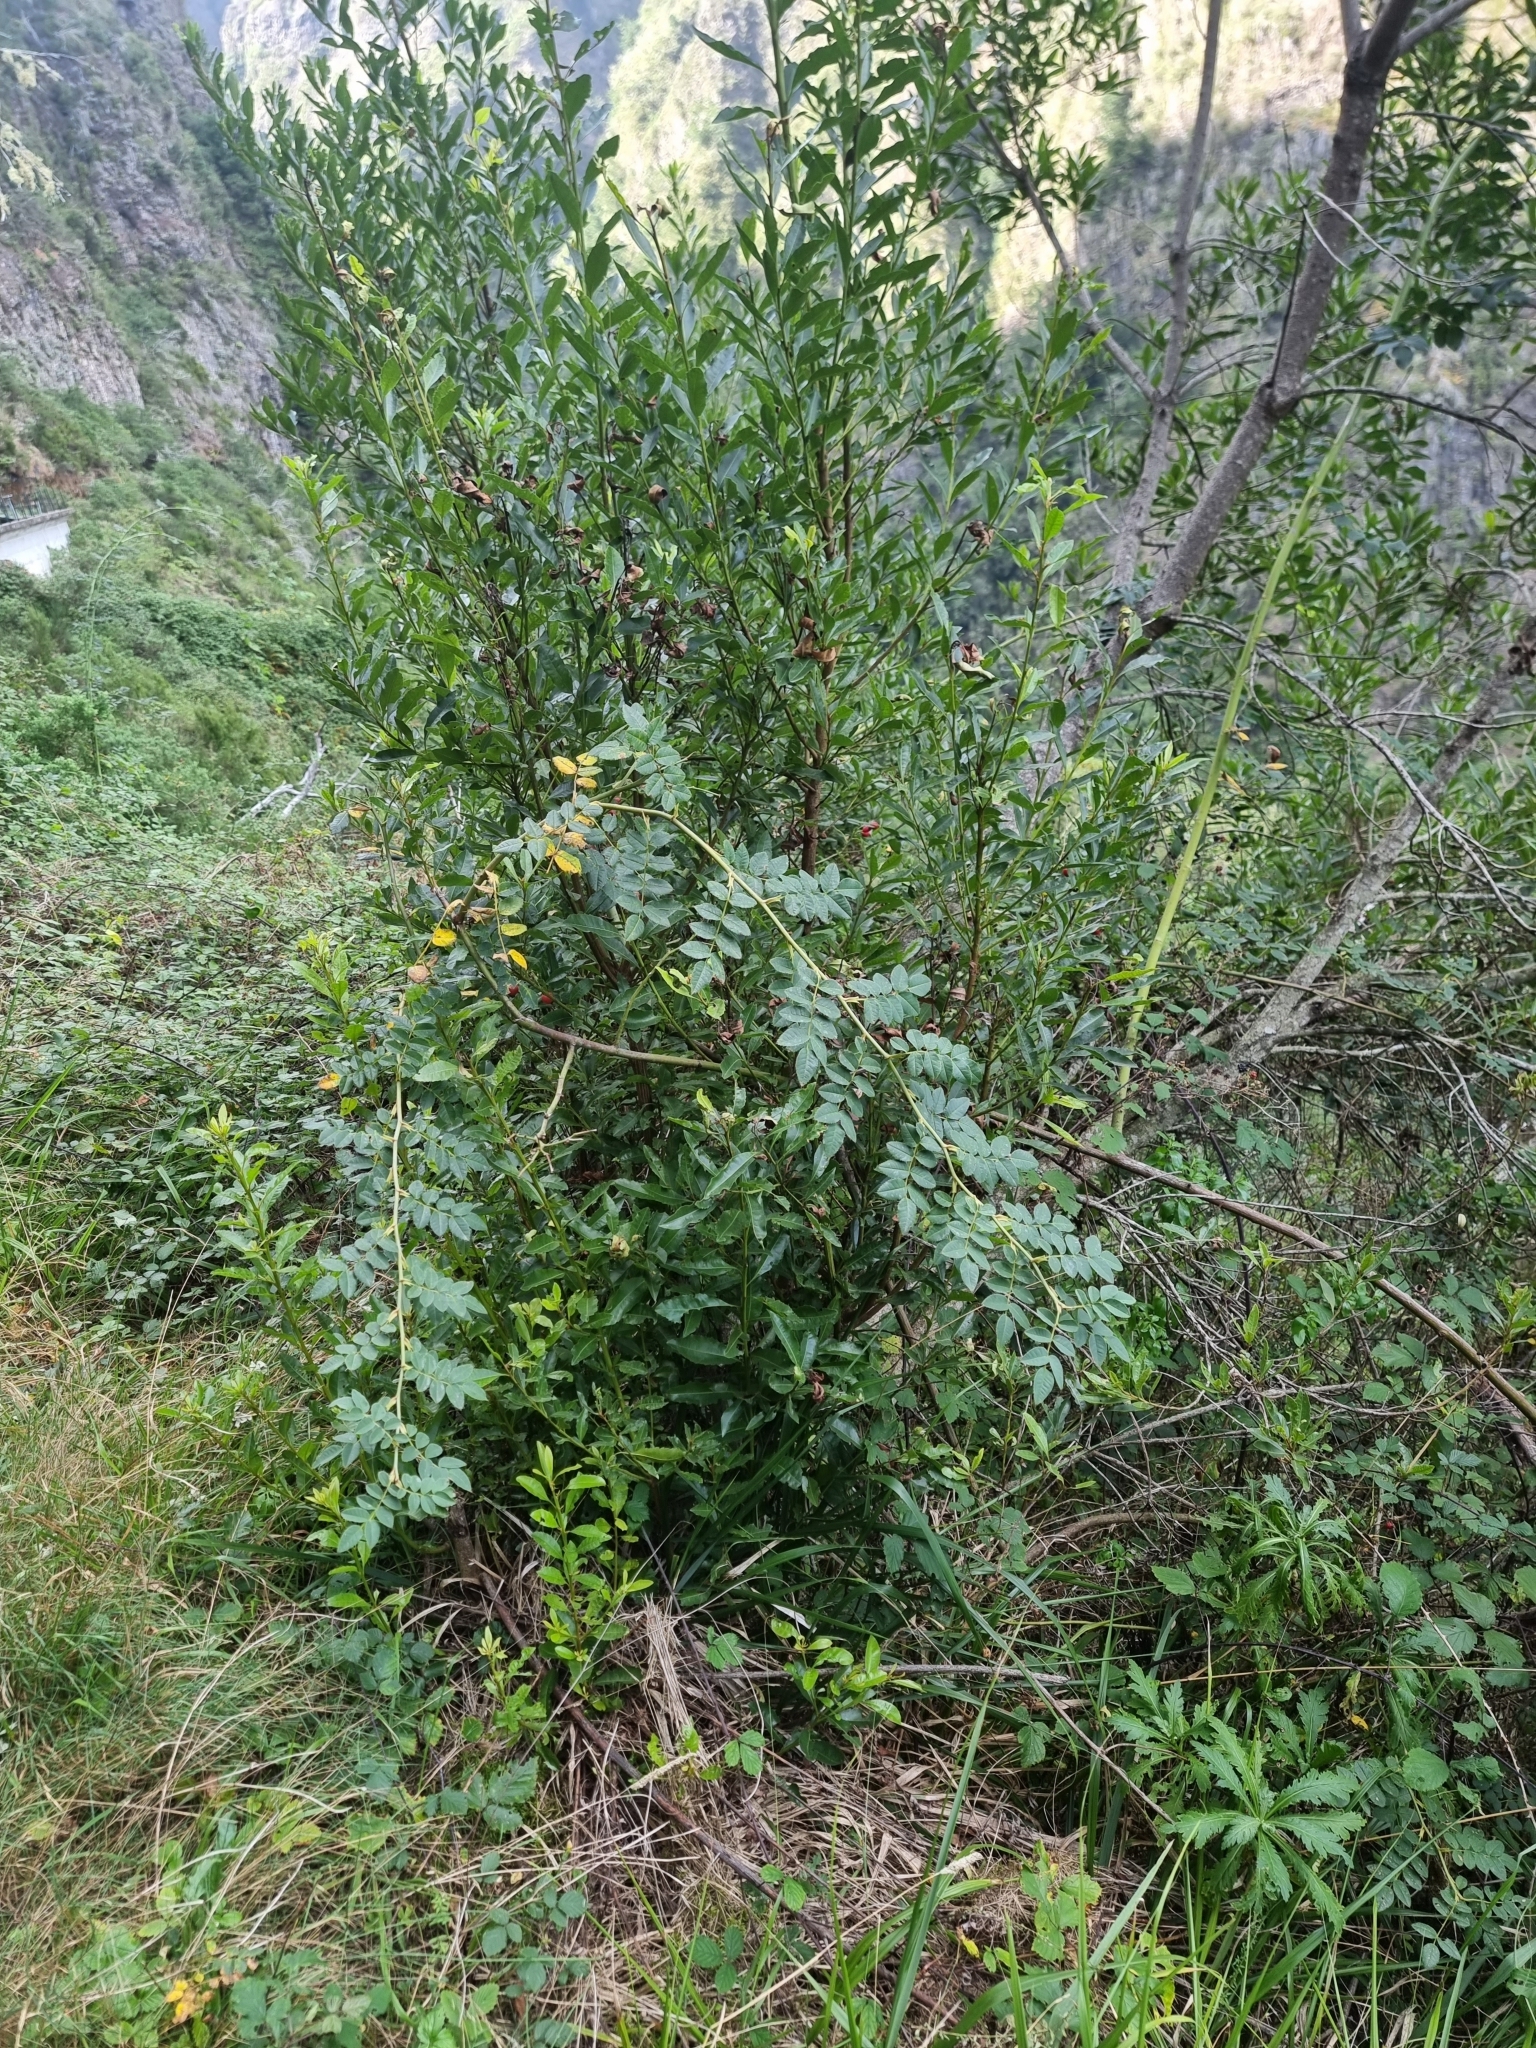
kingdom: Plantae
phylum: Tracheophyta
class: Magnoliopsida
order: Rosales
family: Rosaceae
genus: Rosa
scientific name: Rosa canina
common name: Dog rose
